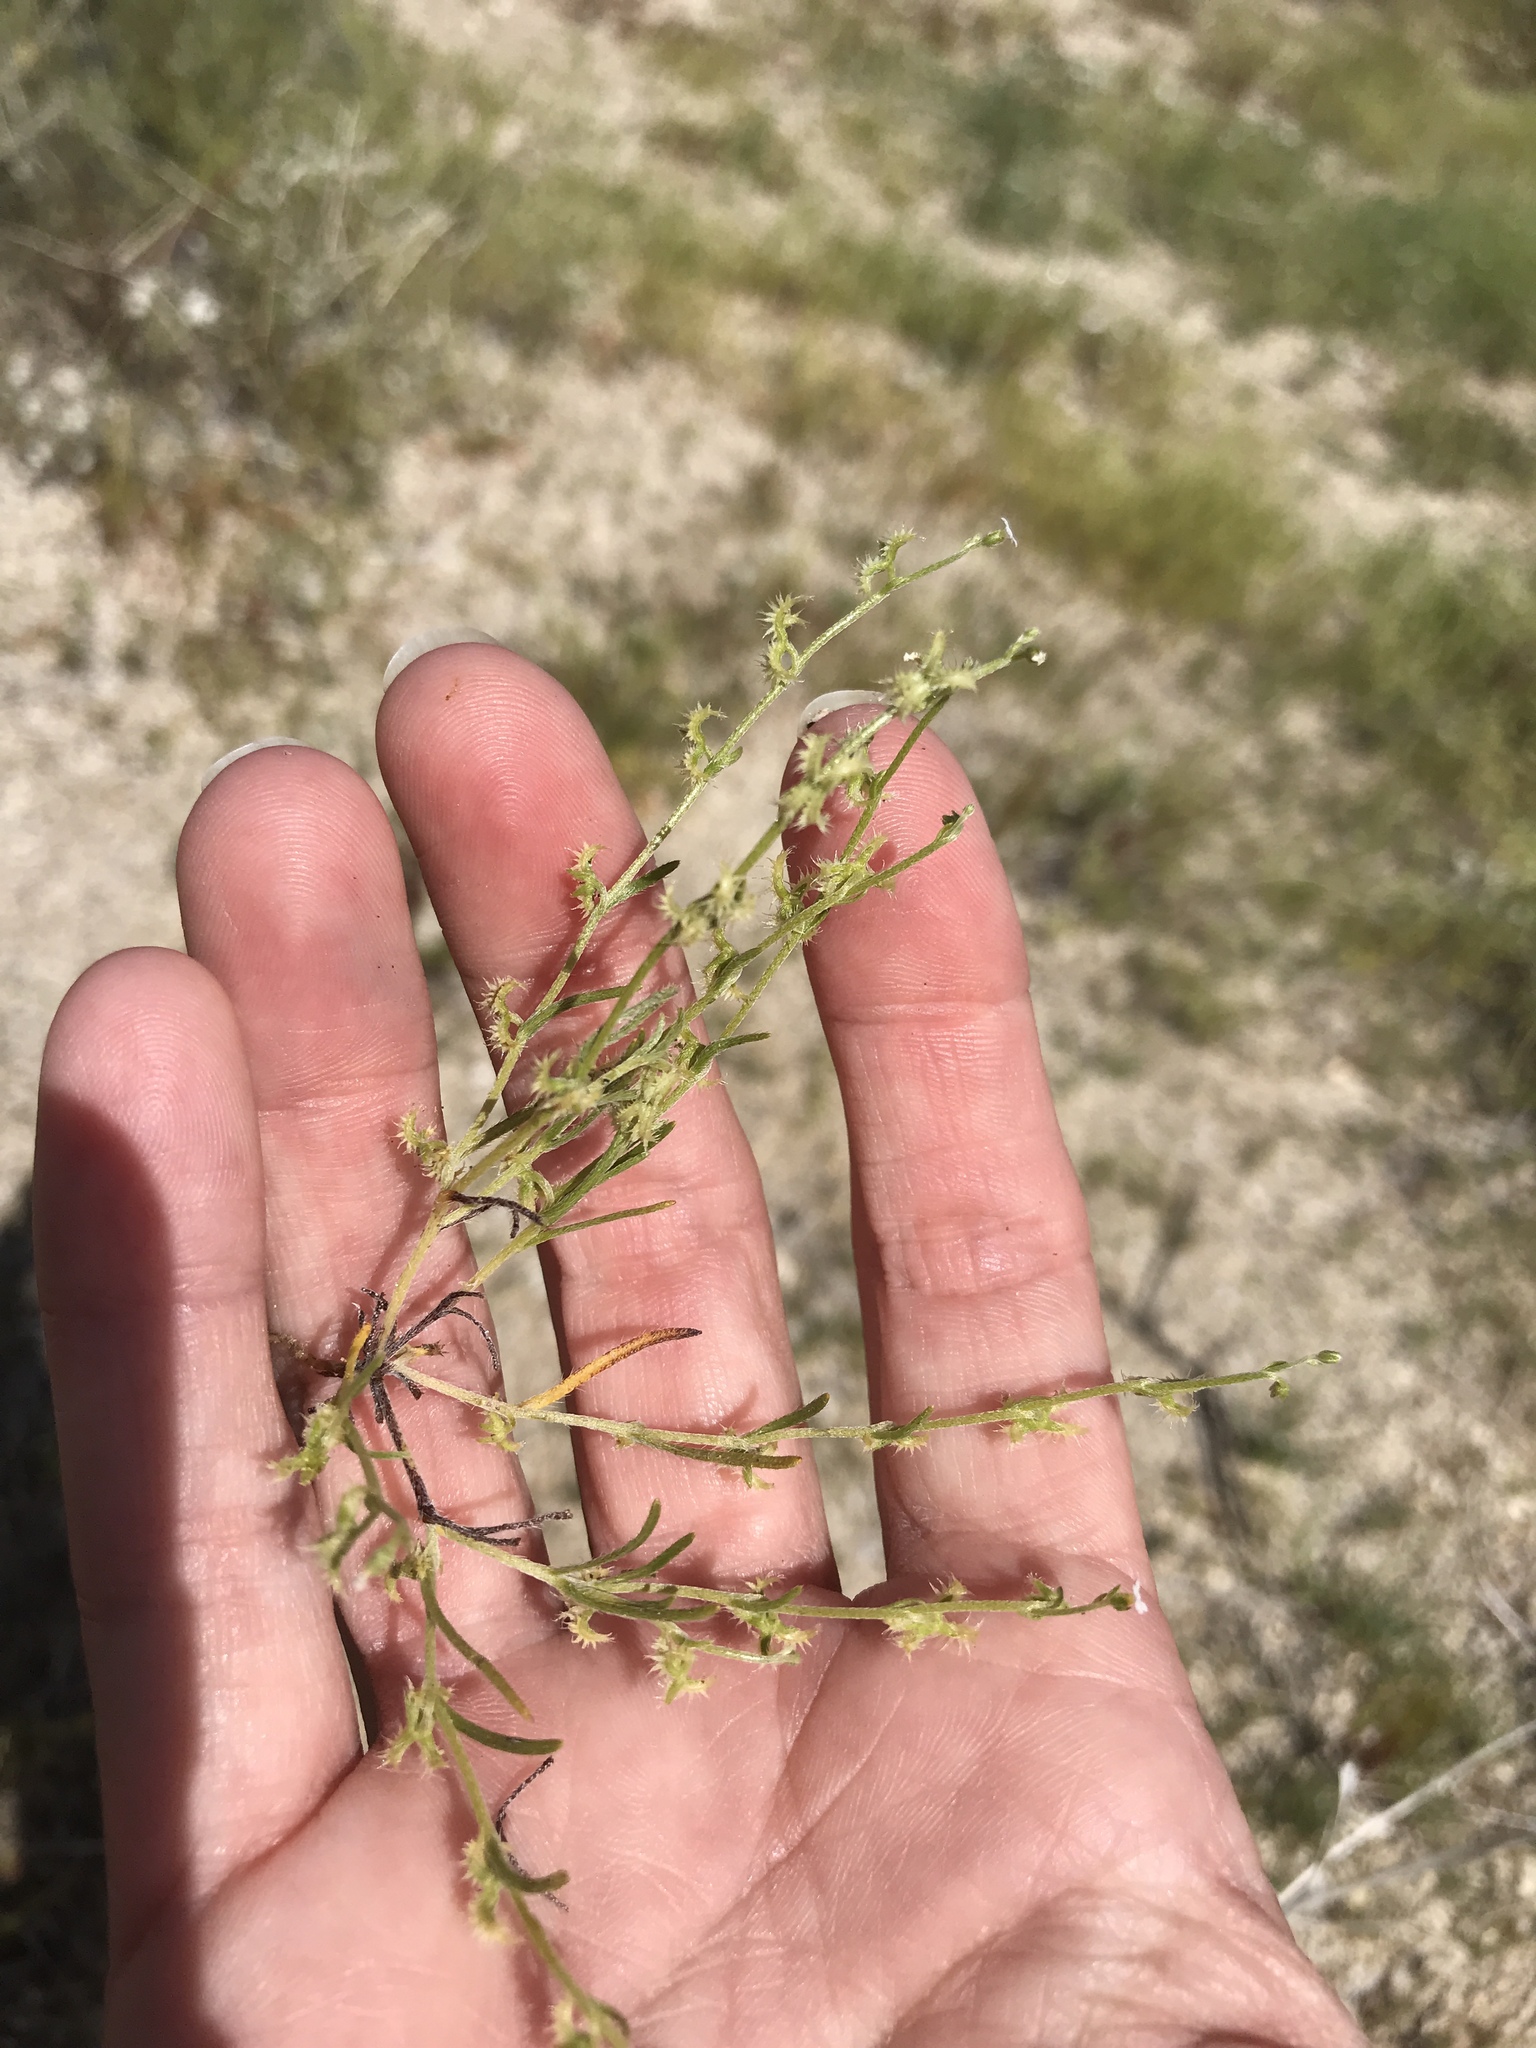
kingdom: Plantae
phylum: Tracheophyta
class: Magnoliopsida
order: Boraginales
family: Boraginaceae
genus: Pectocarya
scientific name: Pectocarya recurvata
